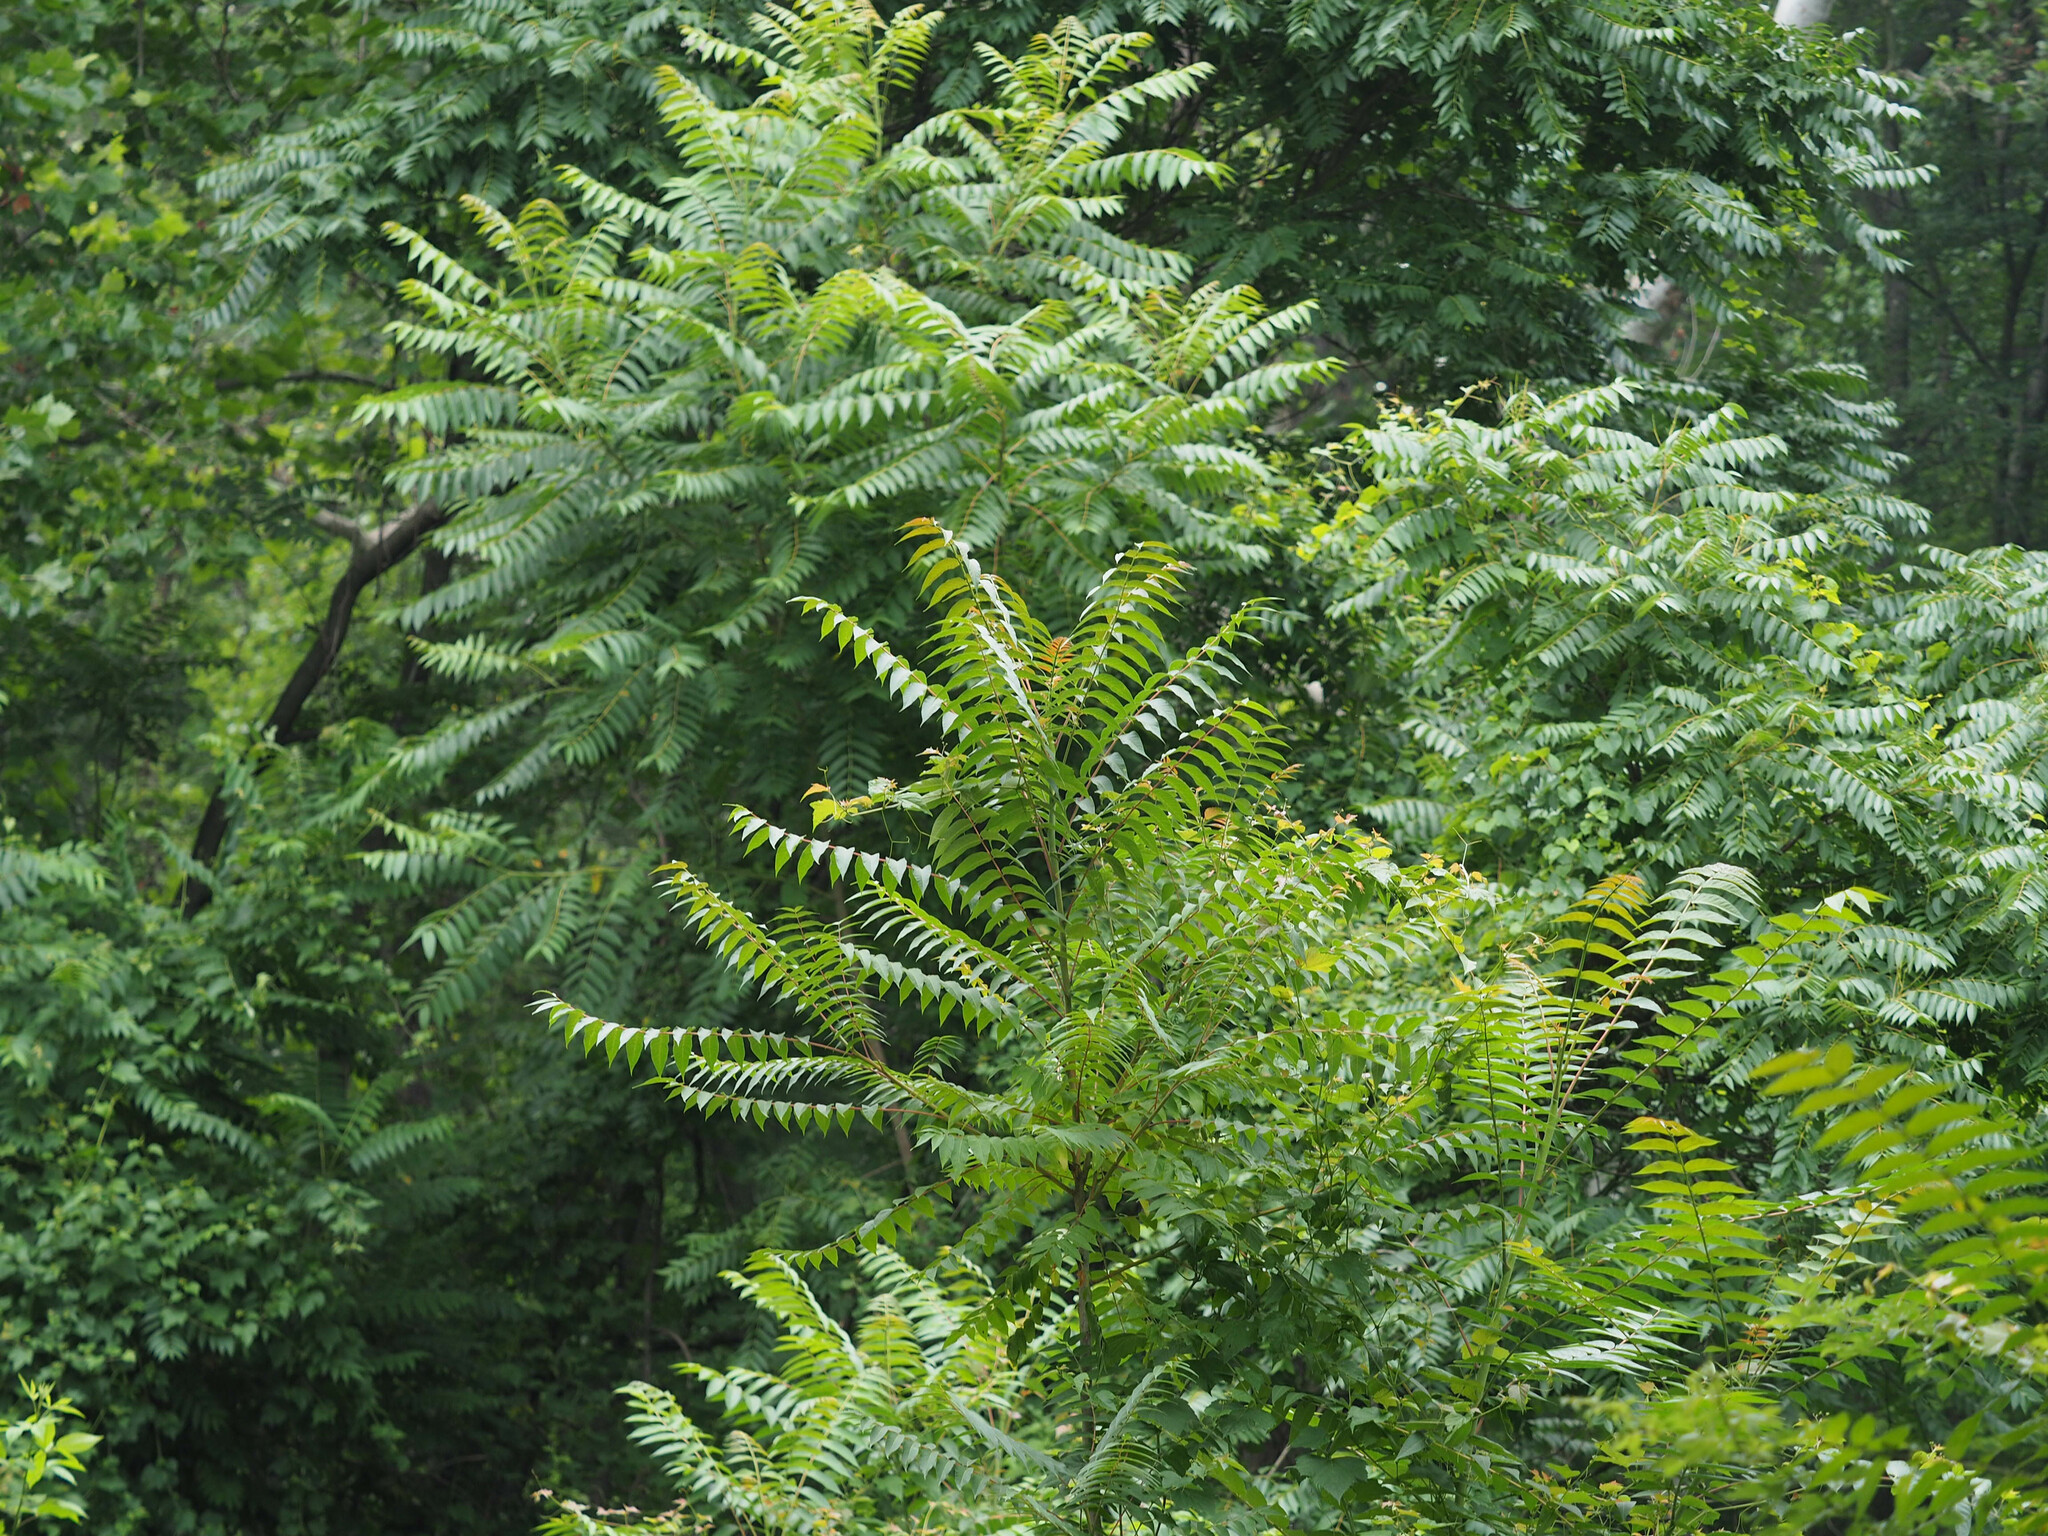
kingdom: Plantae
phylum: Tracheophyta
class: Magnoliopsida
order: Sapindales
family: Simaroubaceae
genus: Ailanthus
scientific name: Ailanthus altissima
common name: Tree-of-heaven
